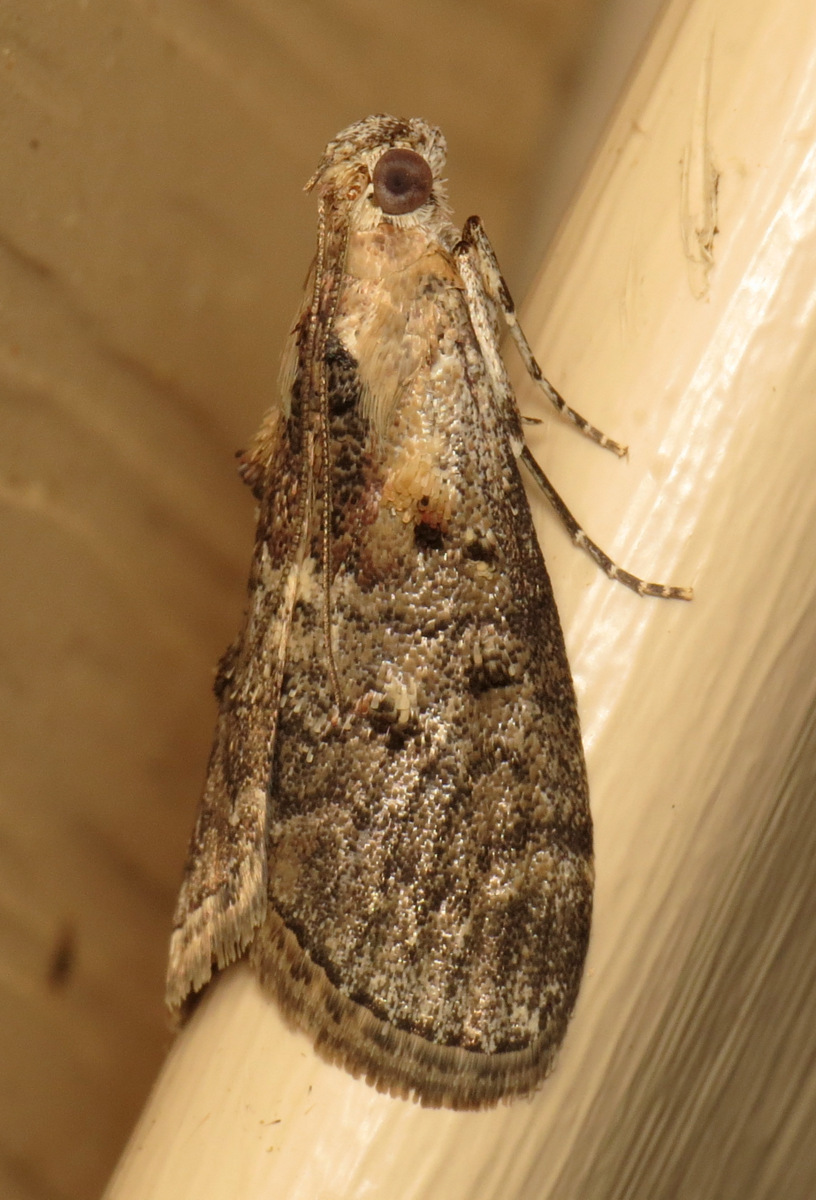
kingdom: Animalia
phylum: Arthropoda
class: Insecta
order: Lepidoptera
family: Pyralidae
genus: Pococera
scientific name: Pococera expandens
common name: Striped oak webworm moth
